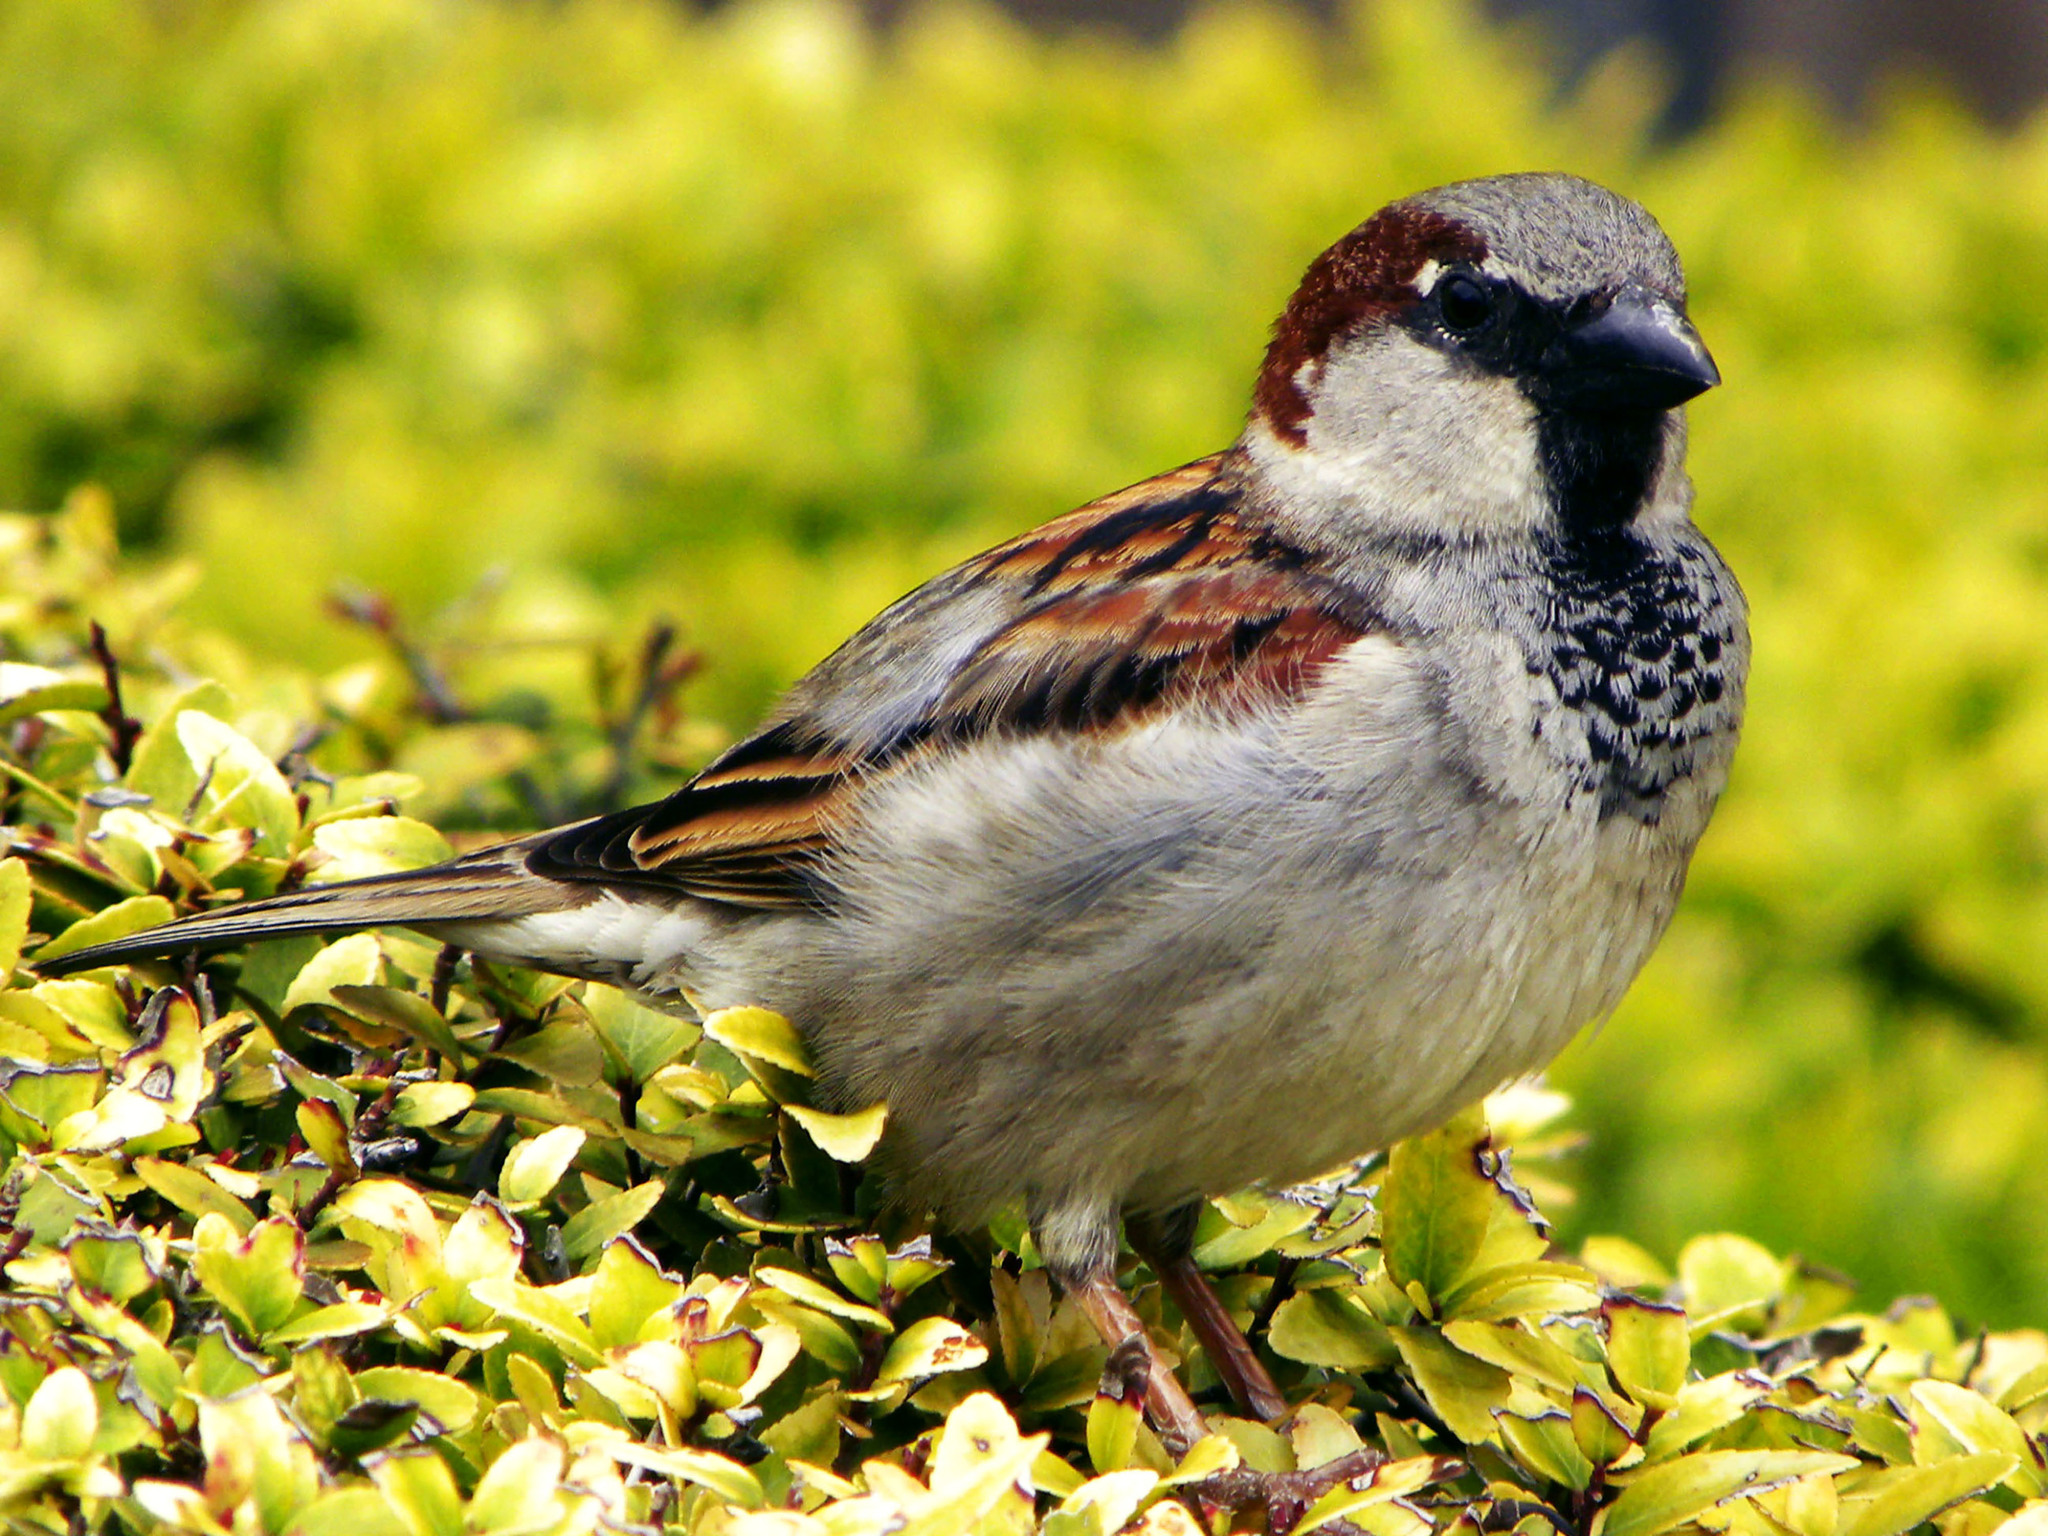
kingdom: Animalia
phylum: Chordata
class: Aves
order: Passeriformes
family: Passeridae
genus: Passer
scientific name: Passer domesticus
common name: House sparrow
